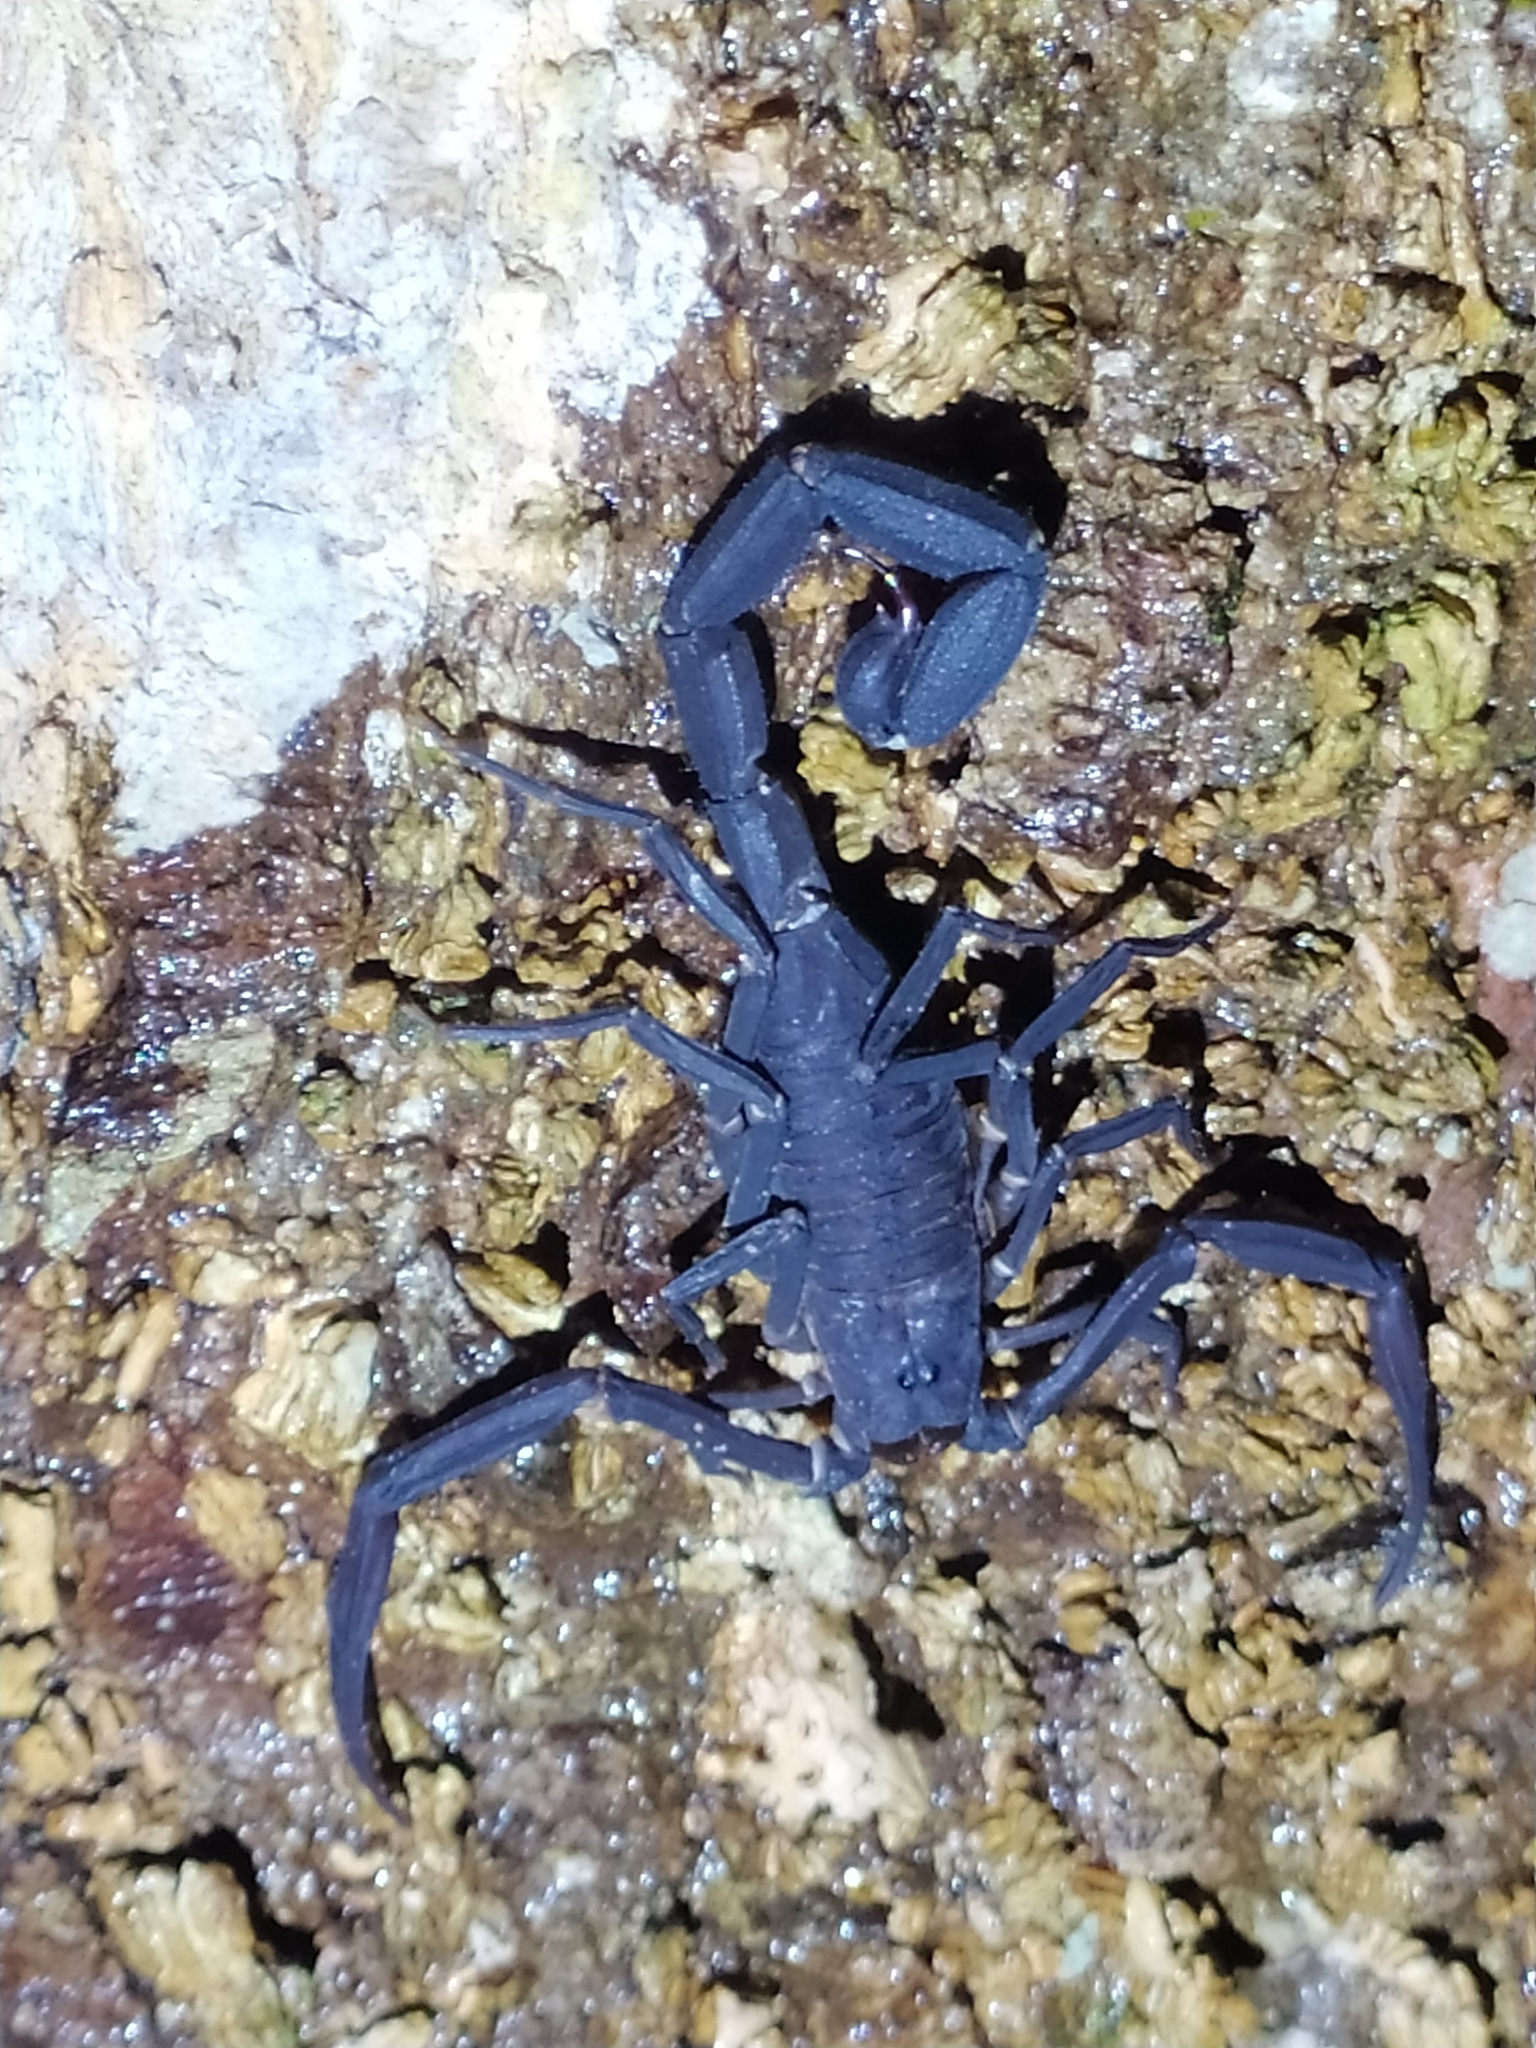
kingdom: Animalia
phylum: Arthropoda
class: Arachnida
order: Scorpiones
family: Buthidae
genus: Tityus
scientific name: Tityus obscurus
